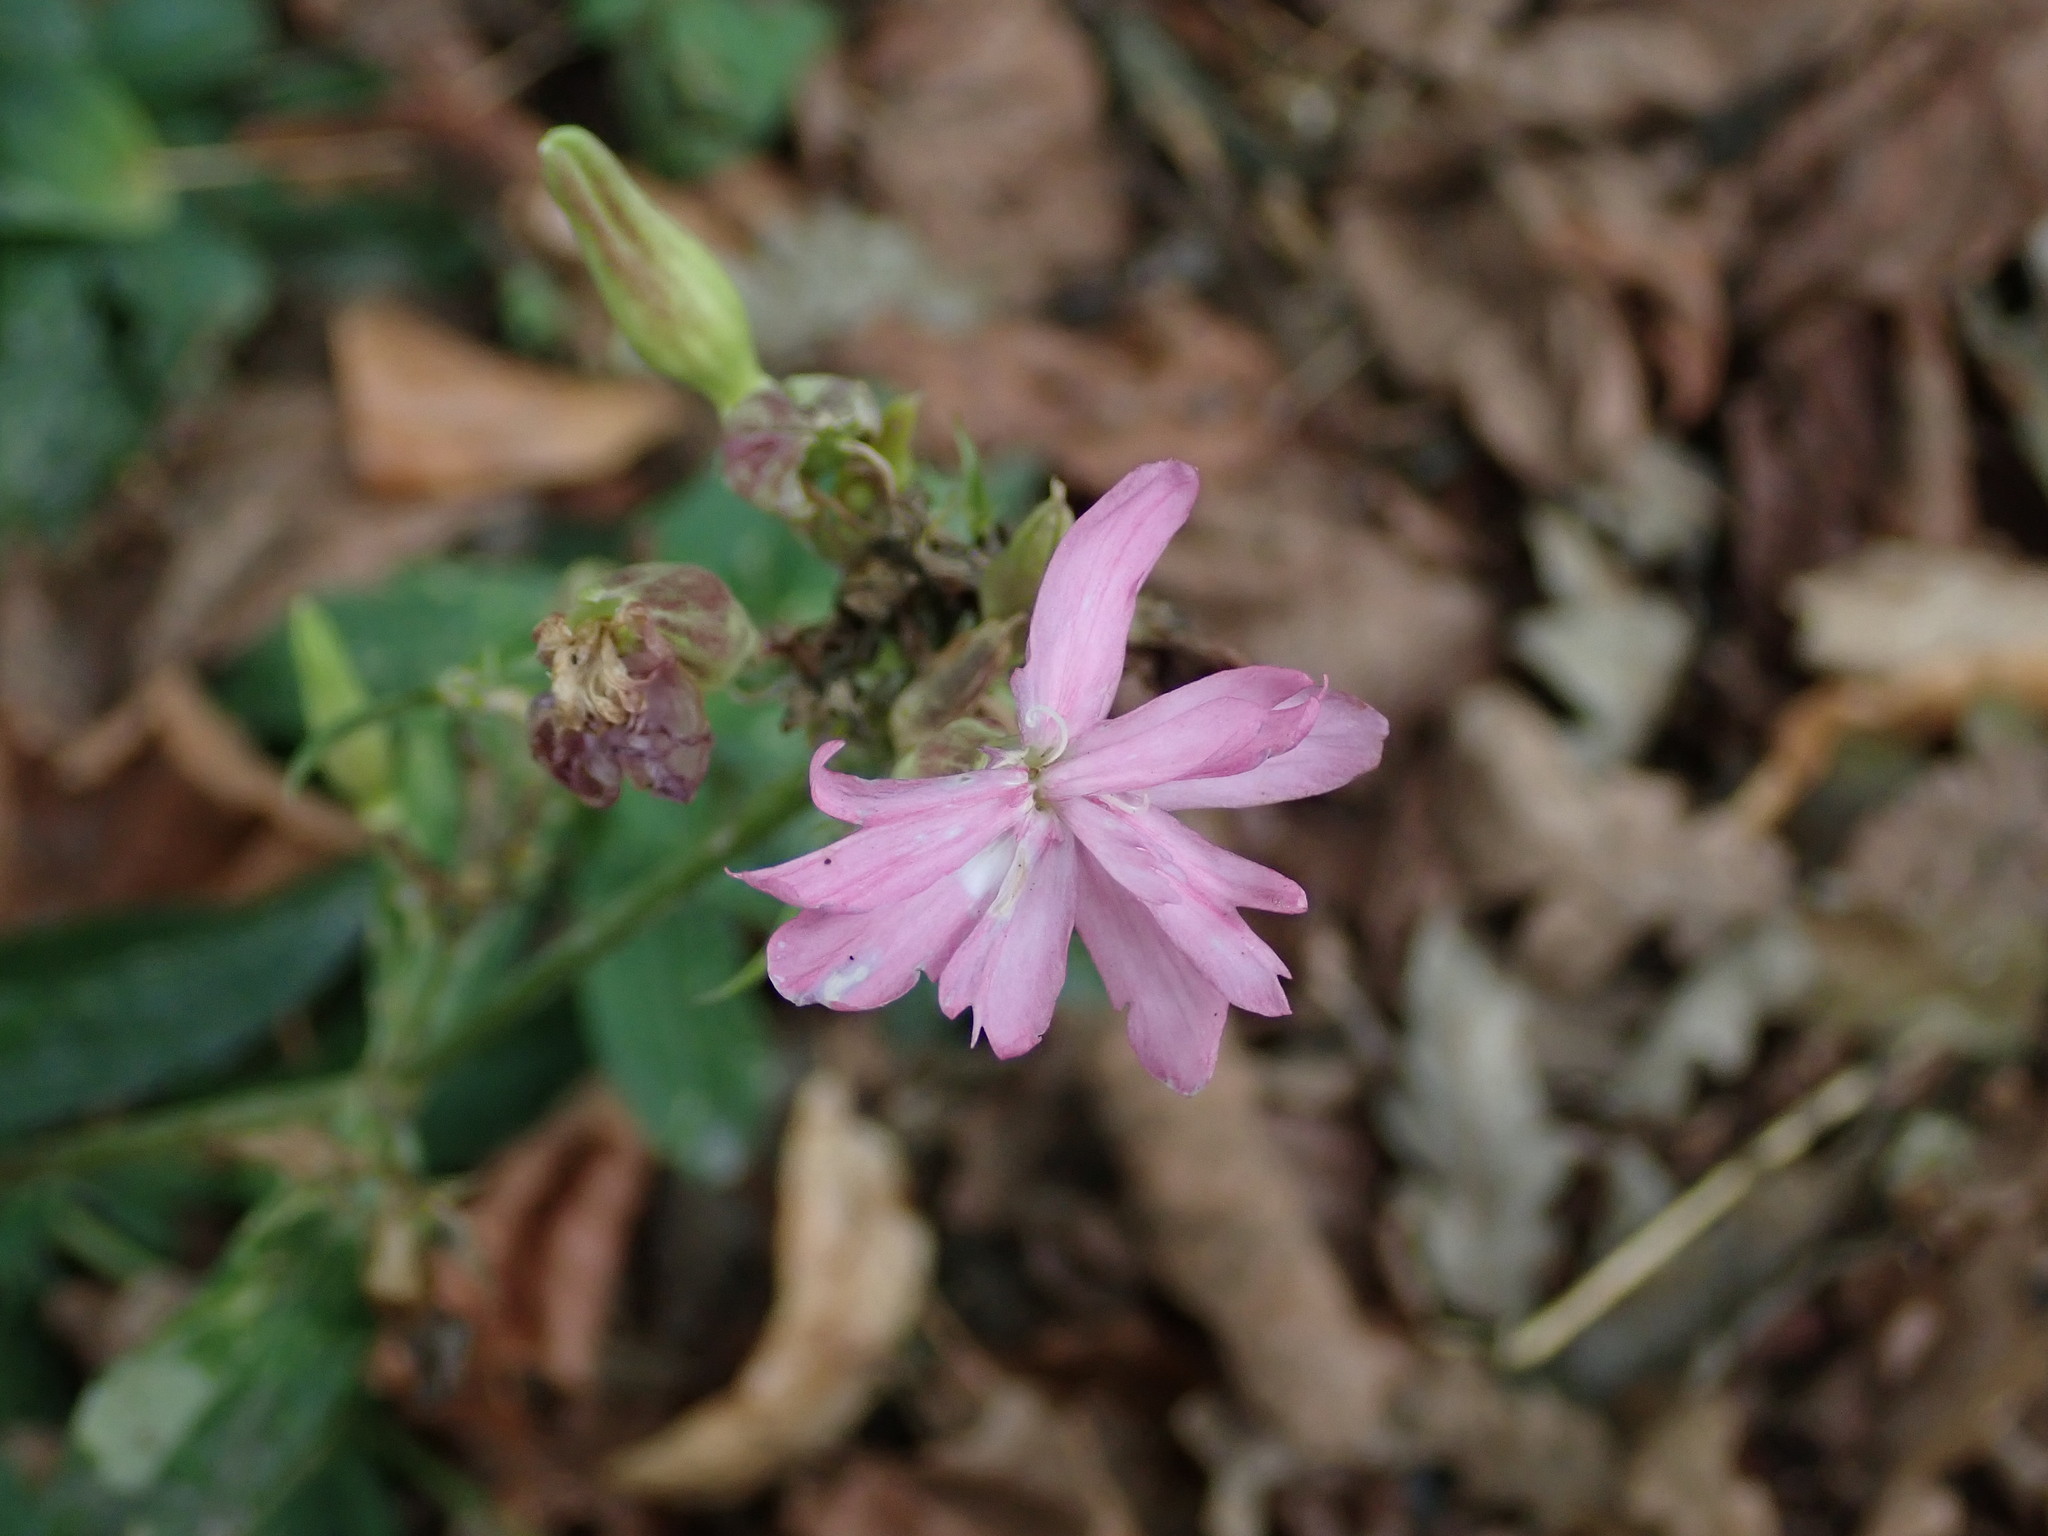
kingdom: Plantae
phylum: Tracheophyta
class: Magnoliopsida
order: Caryophyllales
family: Caryophyllaceae
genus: Silene
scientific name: Silene dioica
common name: Red campion
